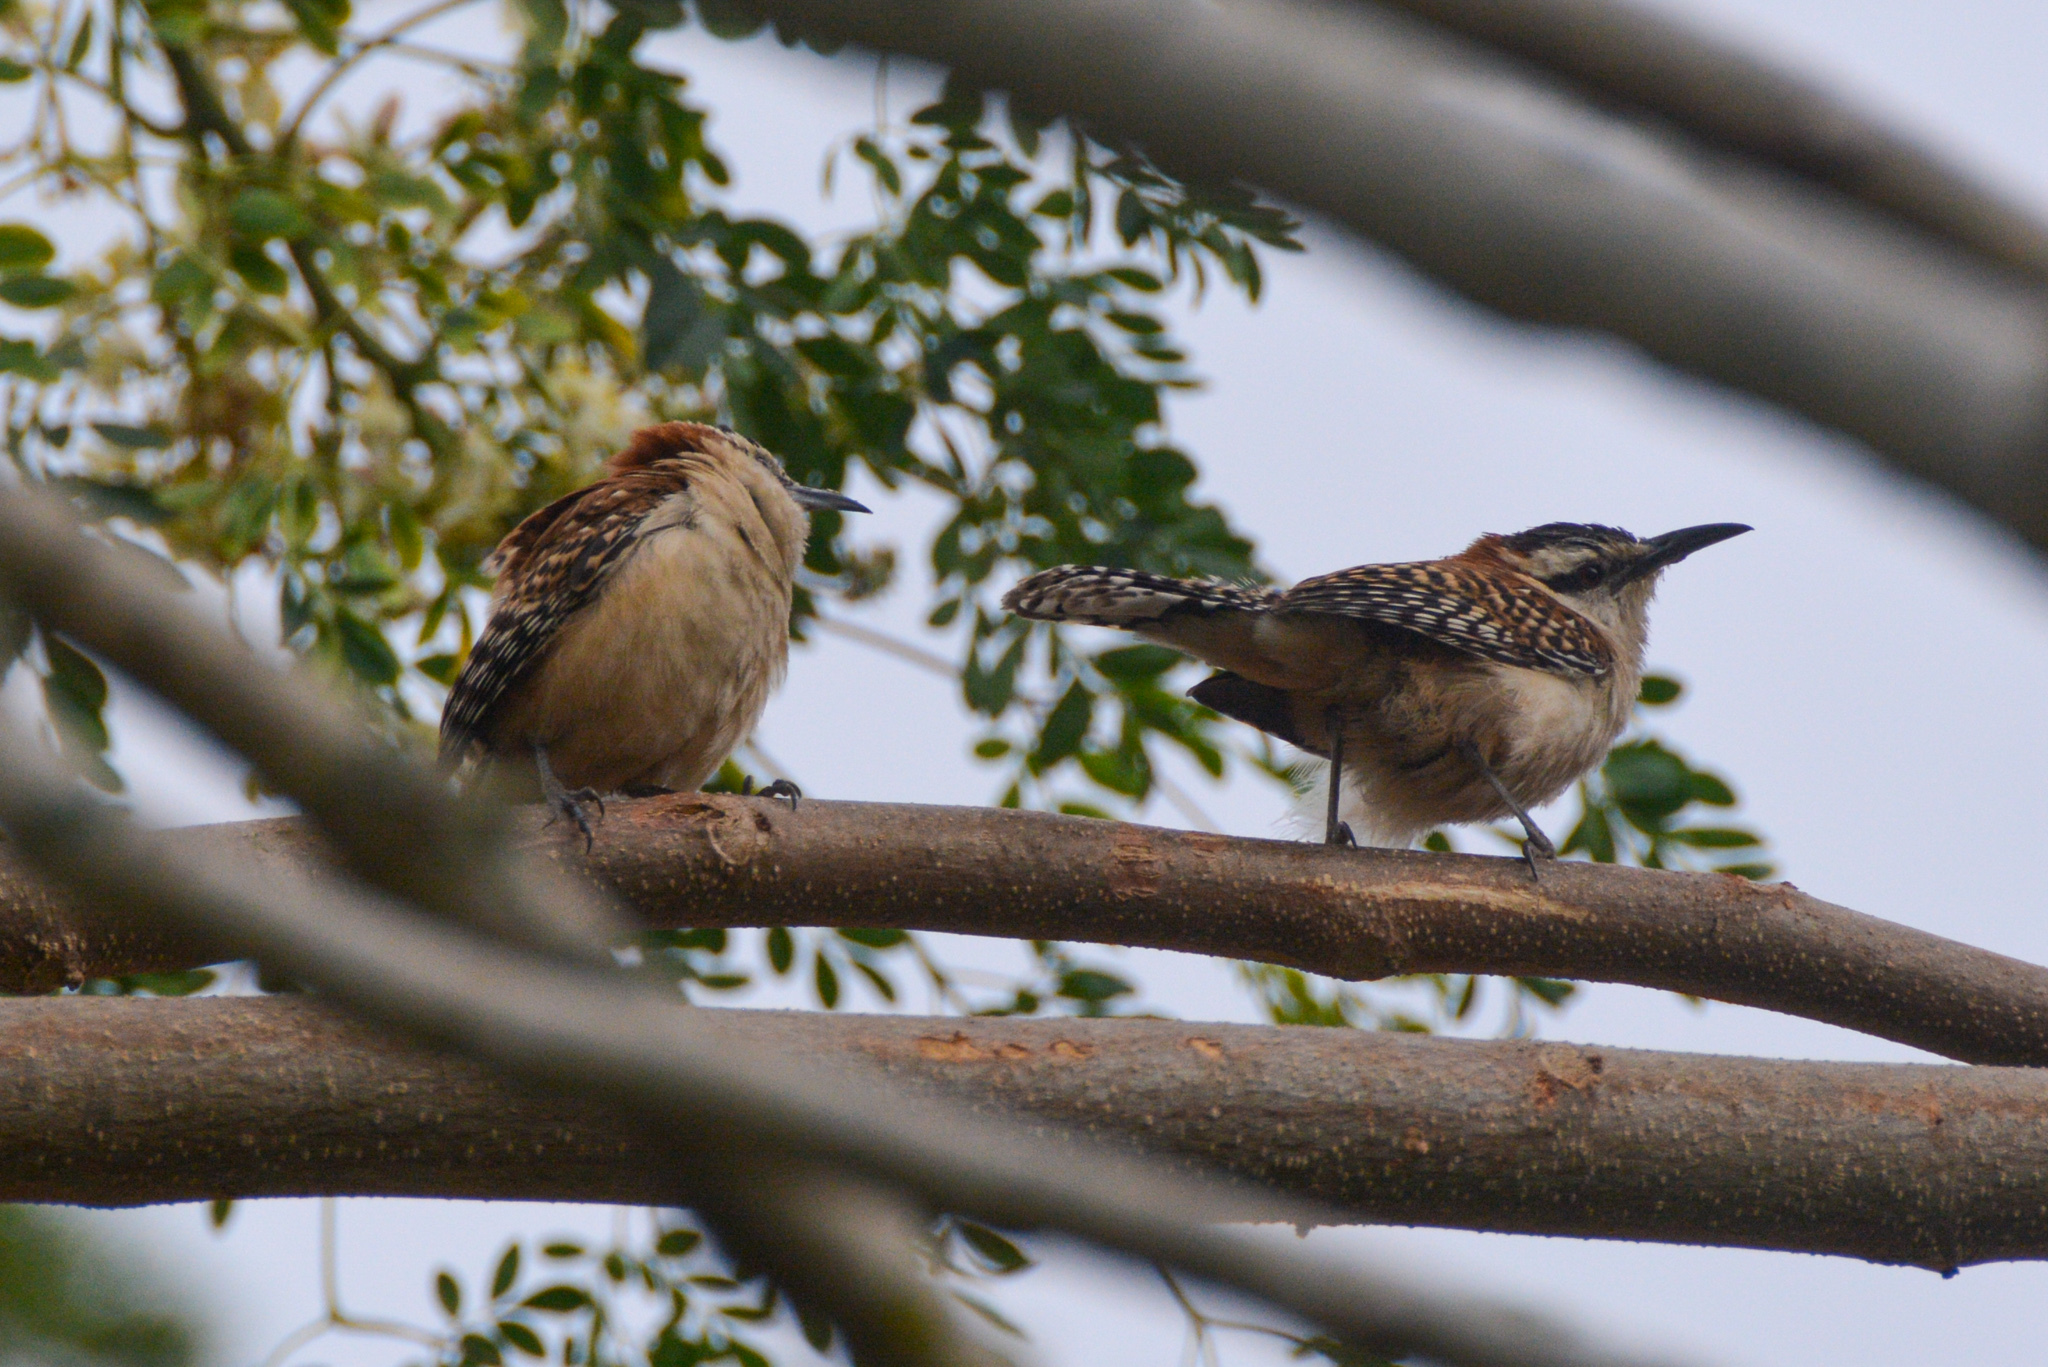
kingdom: Animalia
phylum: Chordata
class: Aves
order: Passeriformes
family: Troglodytidae
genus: Campylorhynchus
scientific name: Campylorhynchus rufinucha
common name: Rufous-naped wren
